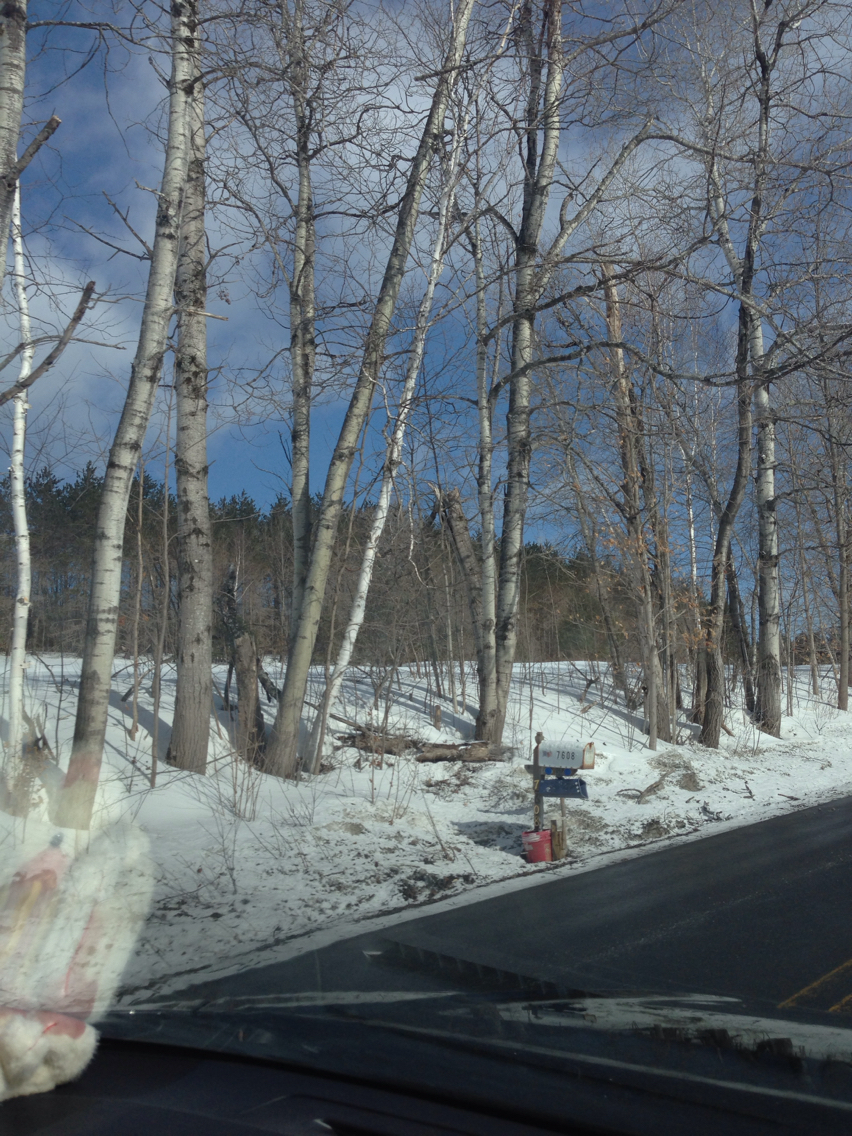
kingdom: Plantae
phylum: Tracheophyta
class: Magnoliopsida
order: Malpighiales
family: Salicaceae
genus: Populus
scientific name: Populus tremuloides
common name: Quaking aspen
